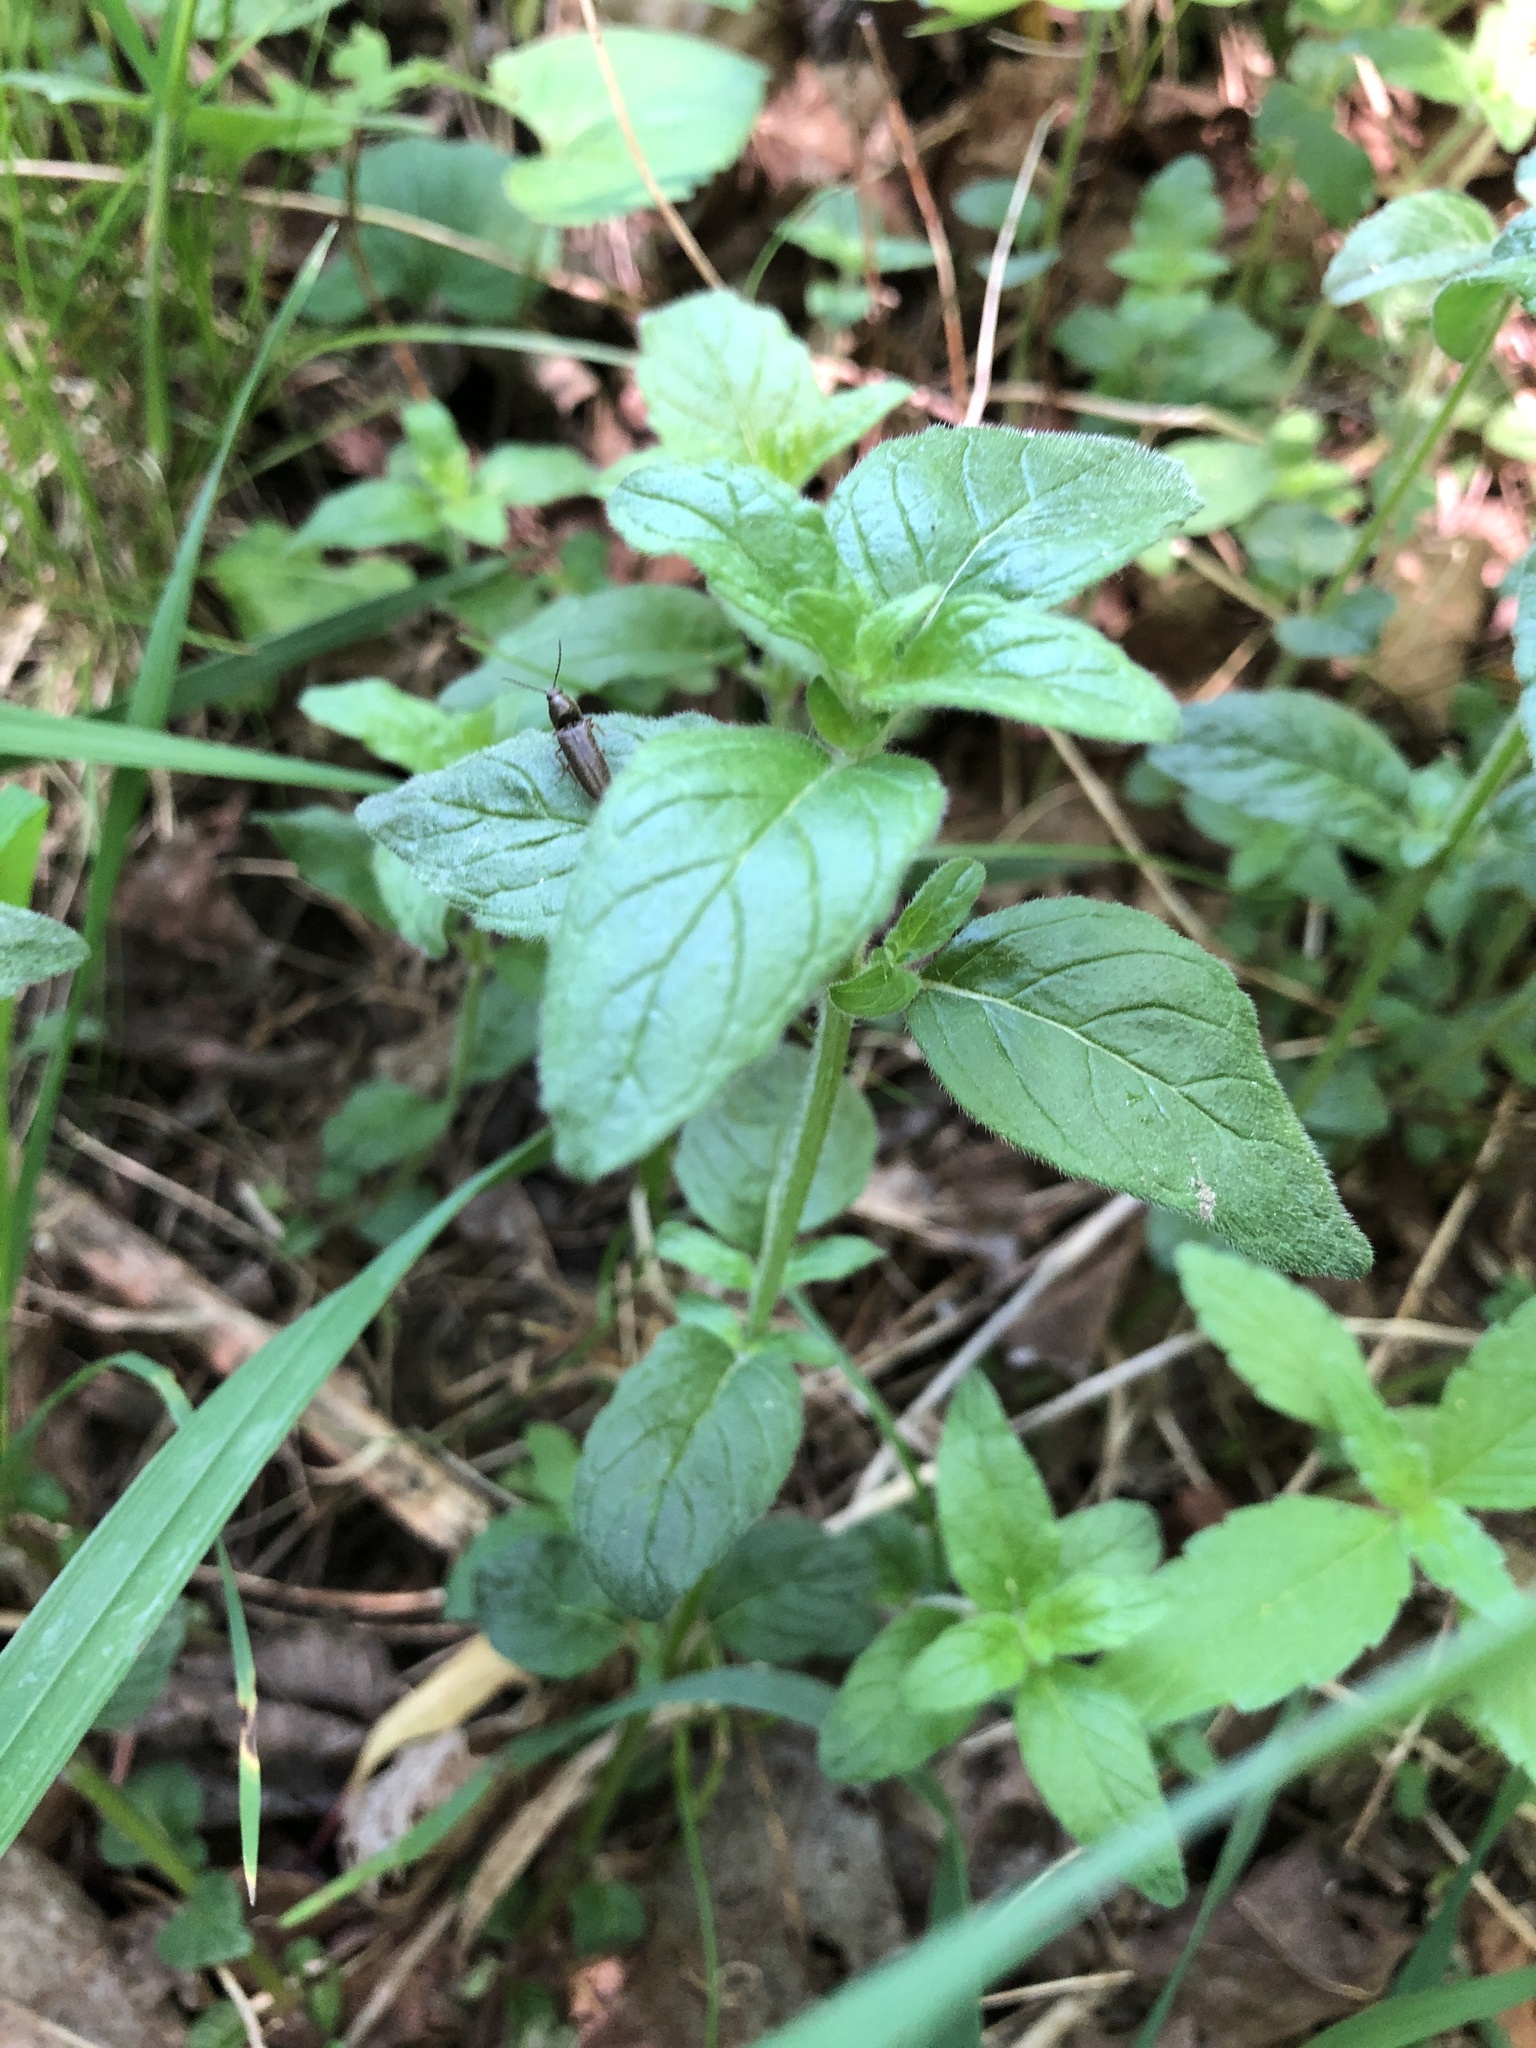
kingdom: Plantae
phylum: Tracheophyta
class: Magnoliopsida
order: Lamiales
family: Lamiaceae
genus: Clinopodium
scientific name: Clinopodium vulgare
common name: Wild basil
